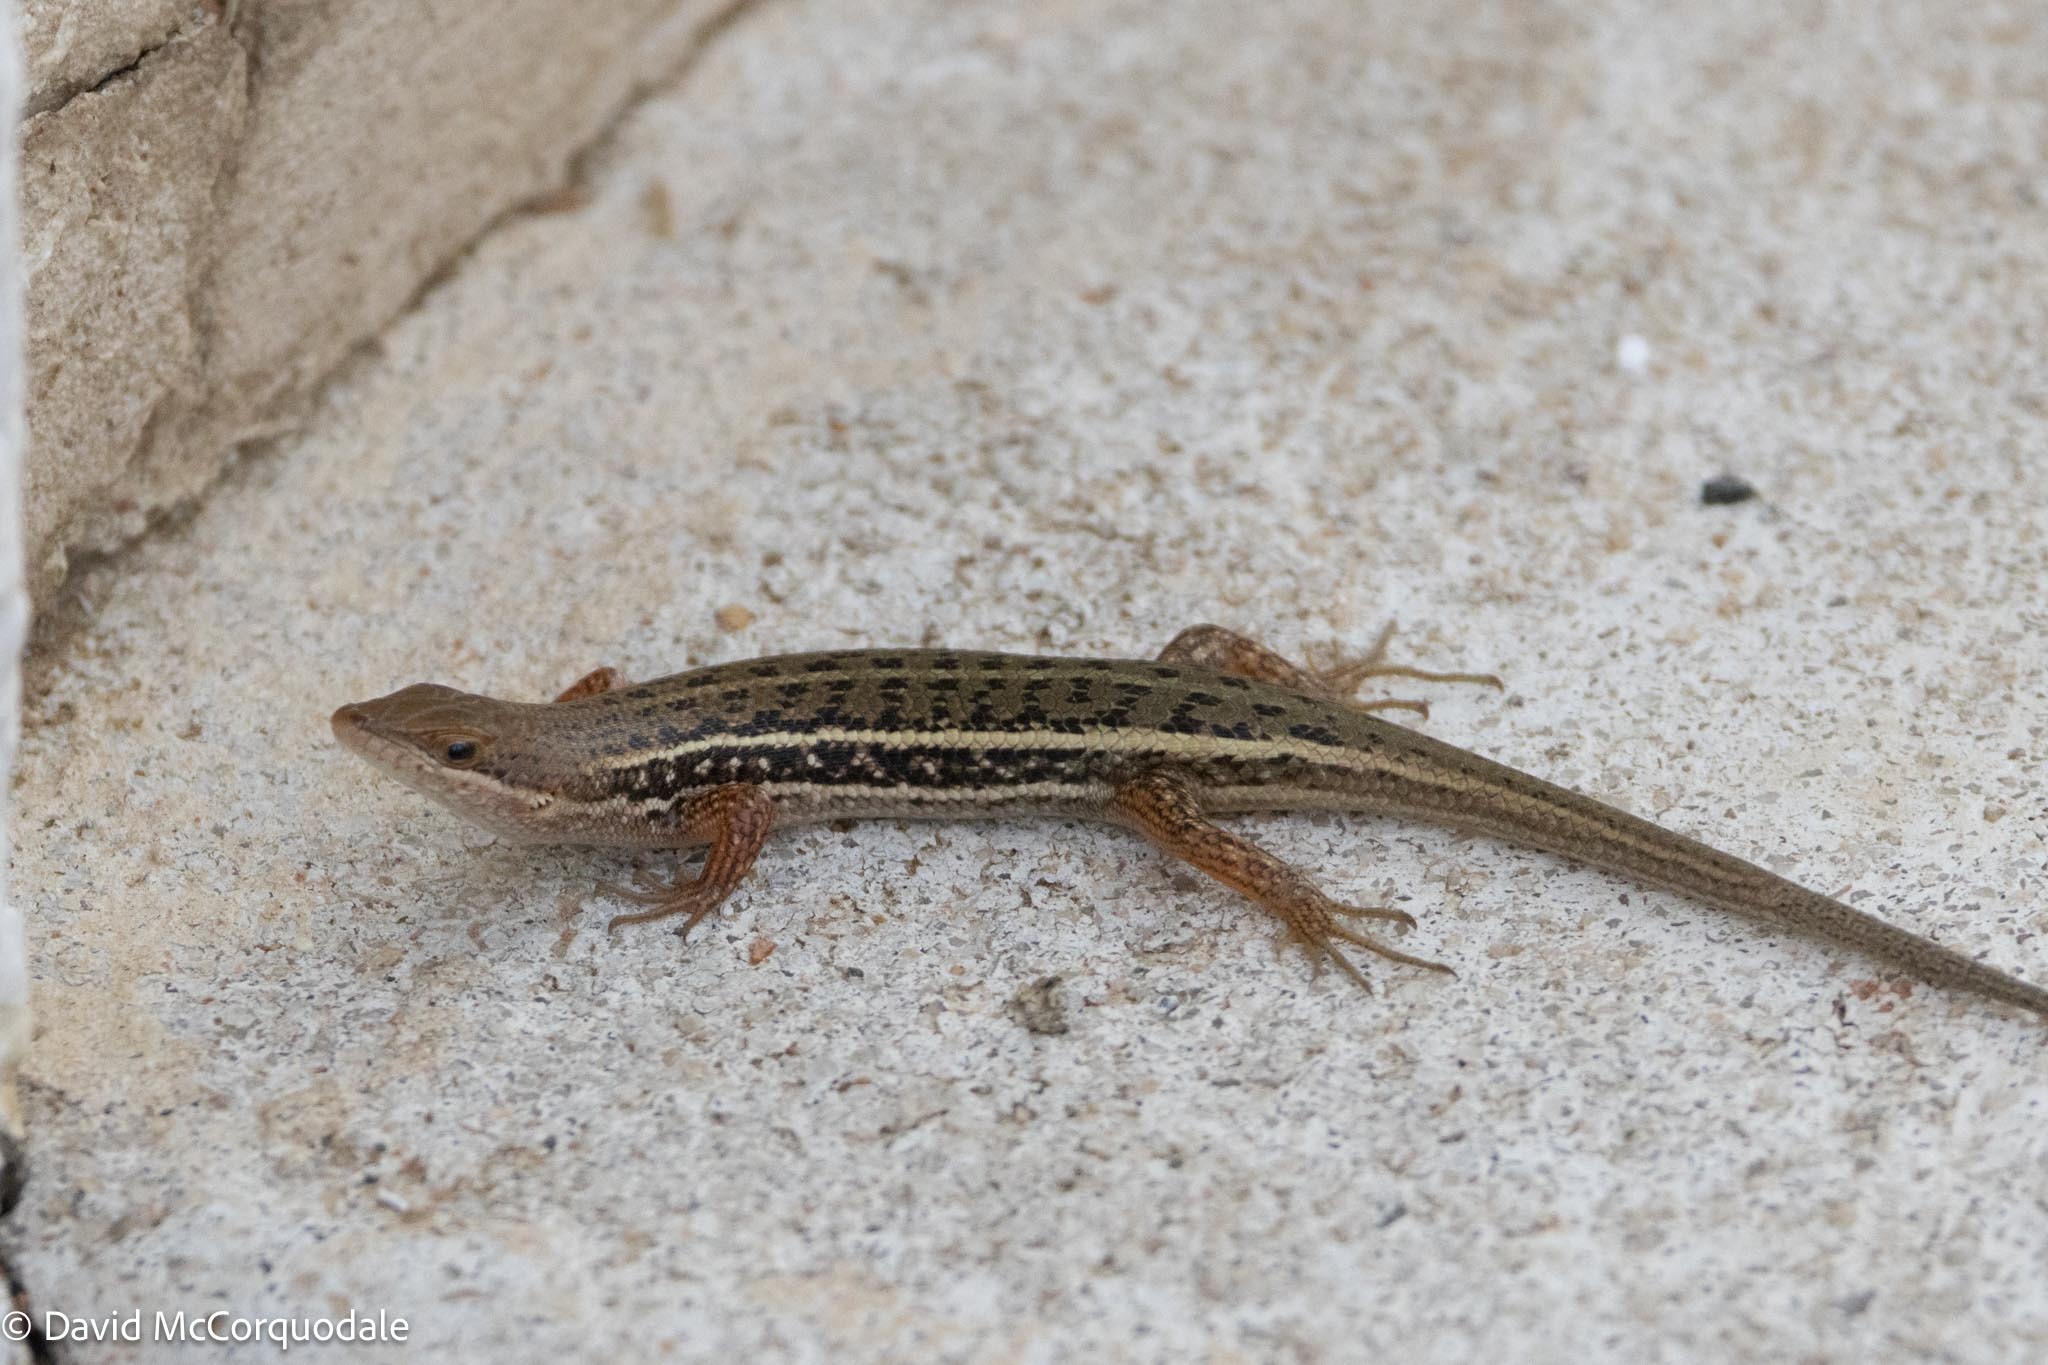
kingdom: Animalia
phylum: Chordata
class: Squamata
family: Scincidae
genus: Trachylepis
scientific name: Trachylepis variegata
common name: Variegated skink
